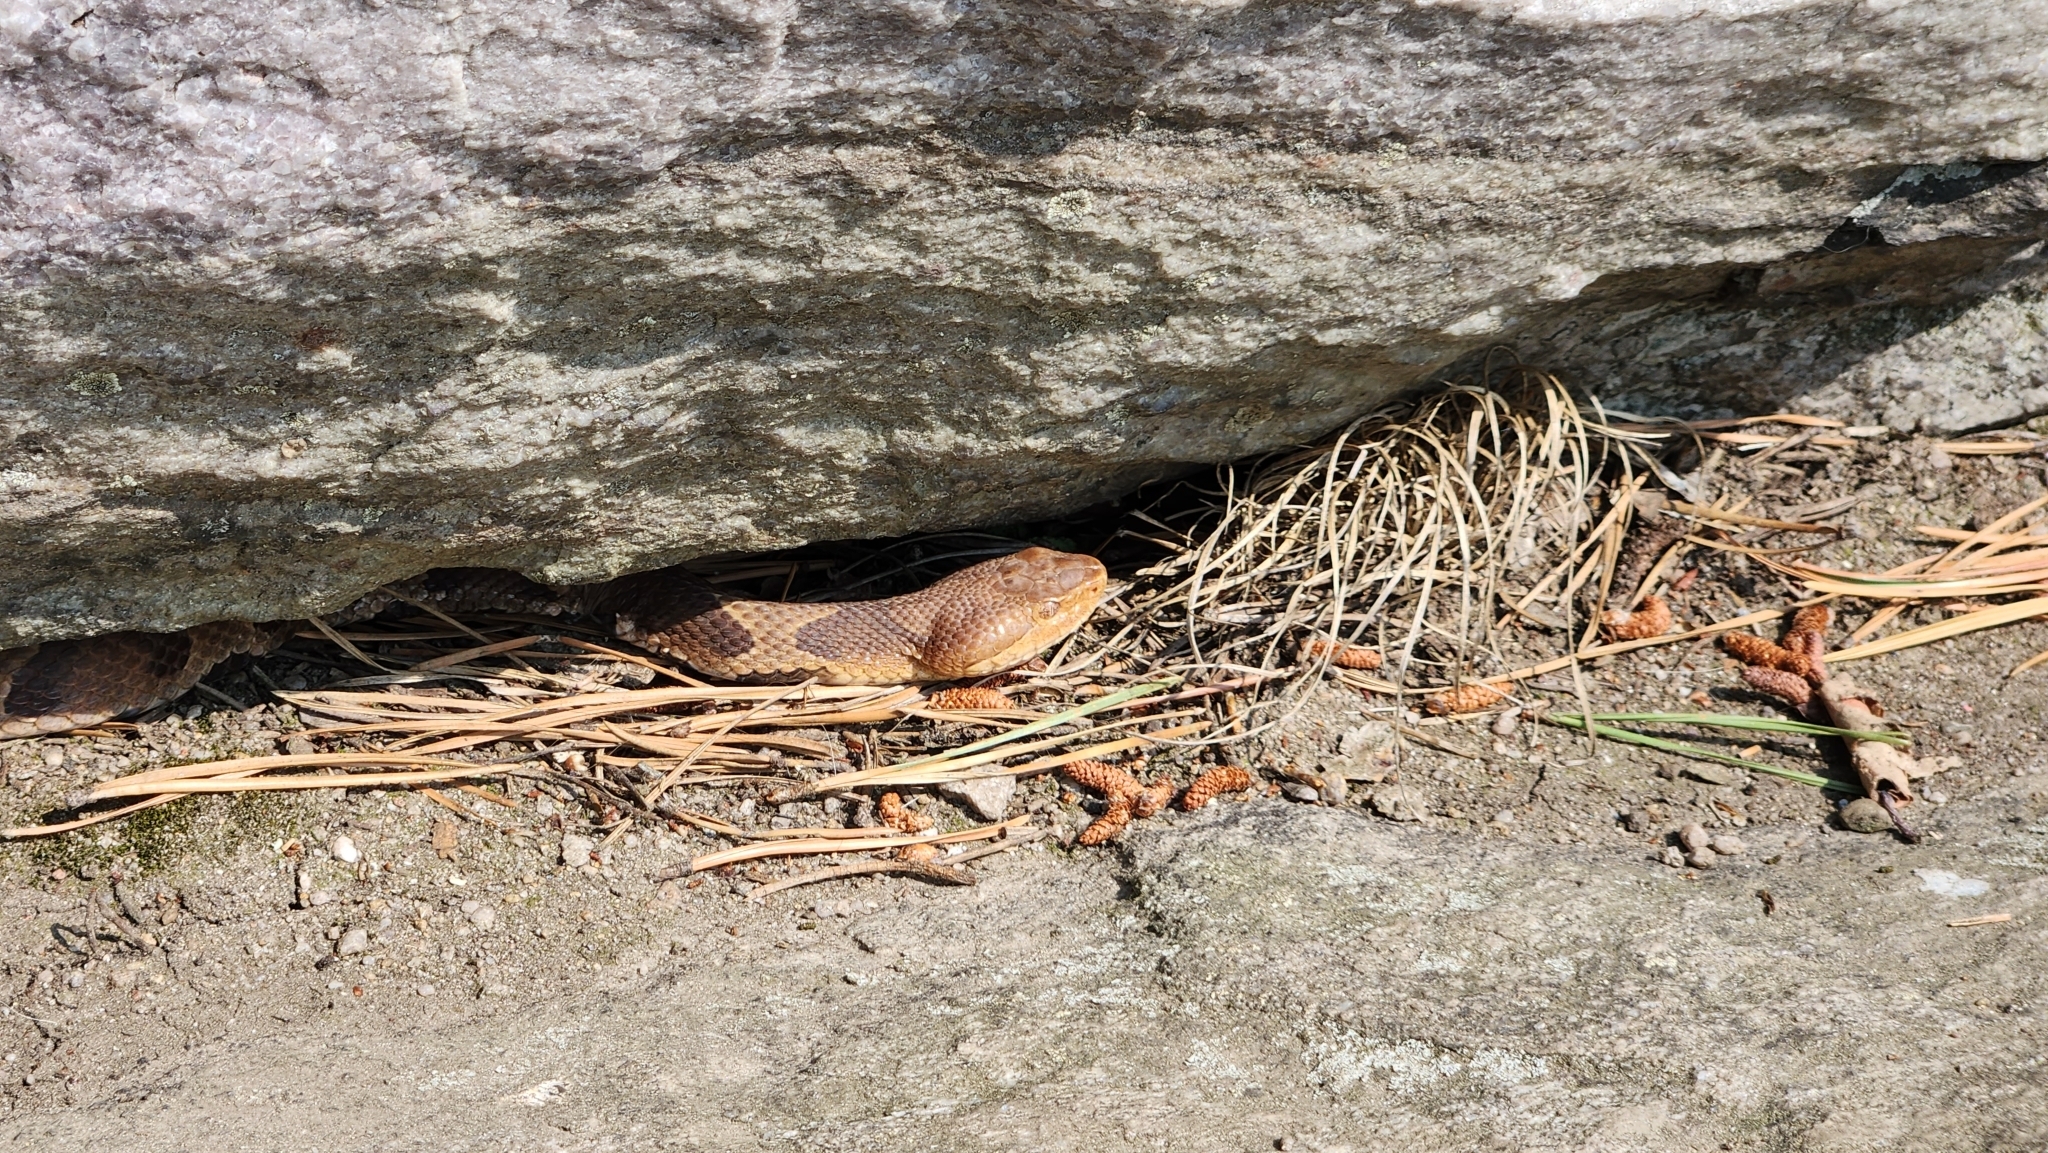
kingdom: Animalia
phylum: Chordata
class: Squamata
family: Viperidae
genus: Agkistrodon
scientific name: Agkistrodon contortrix
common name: Northern copperhead
